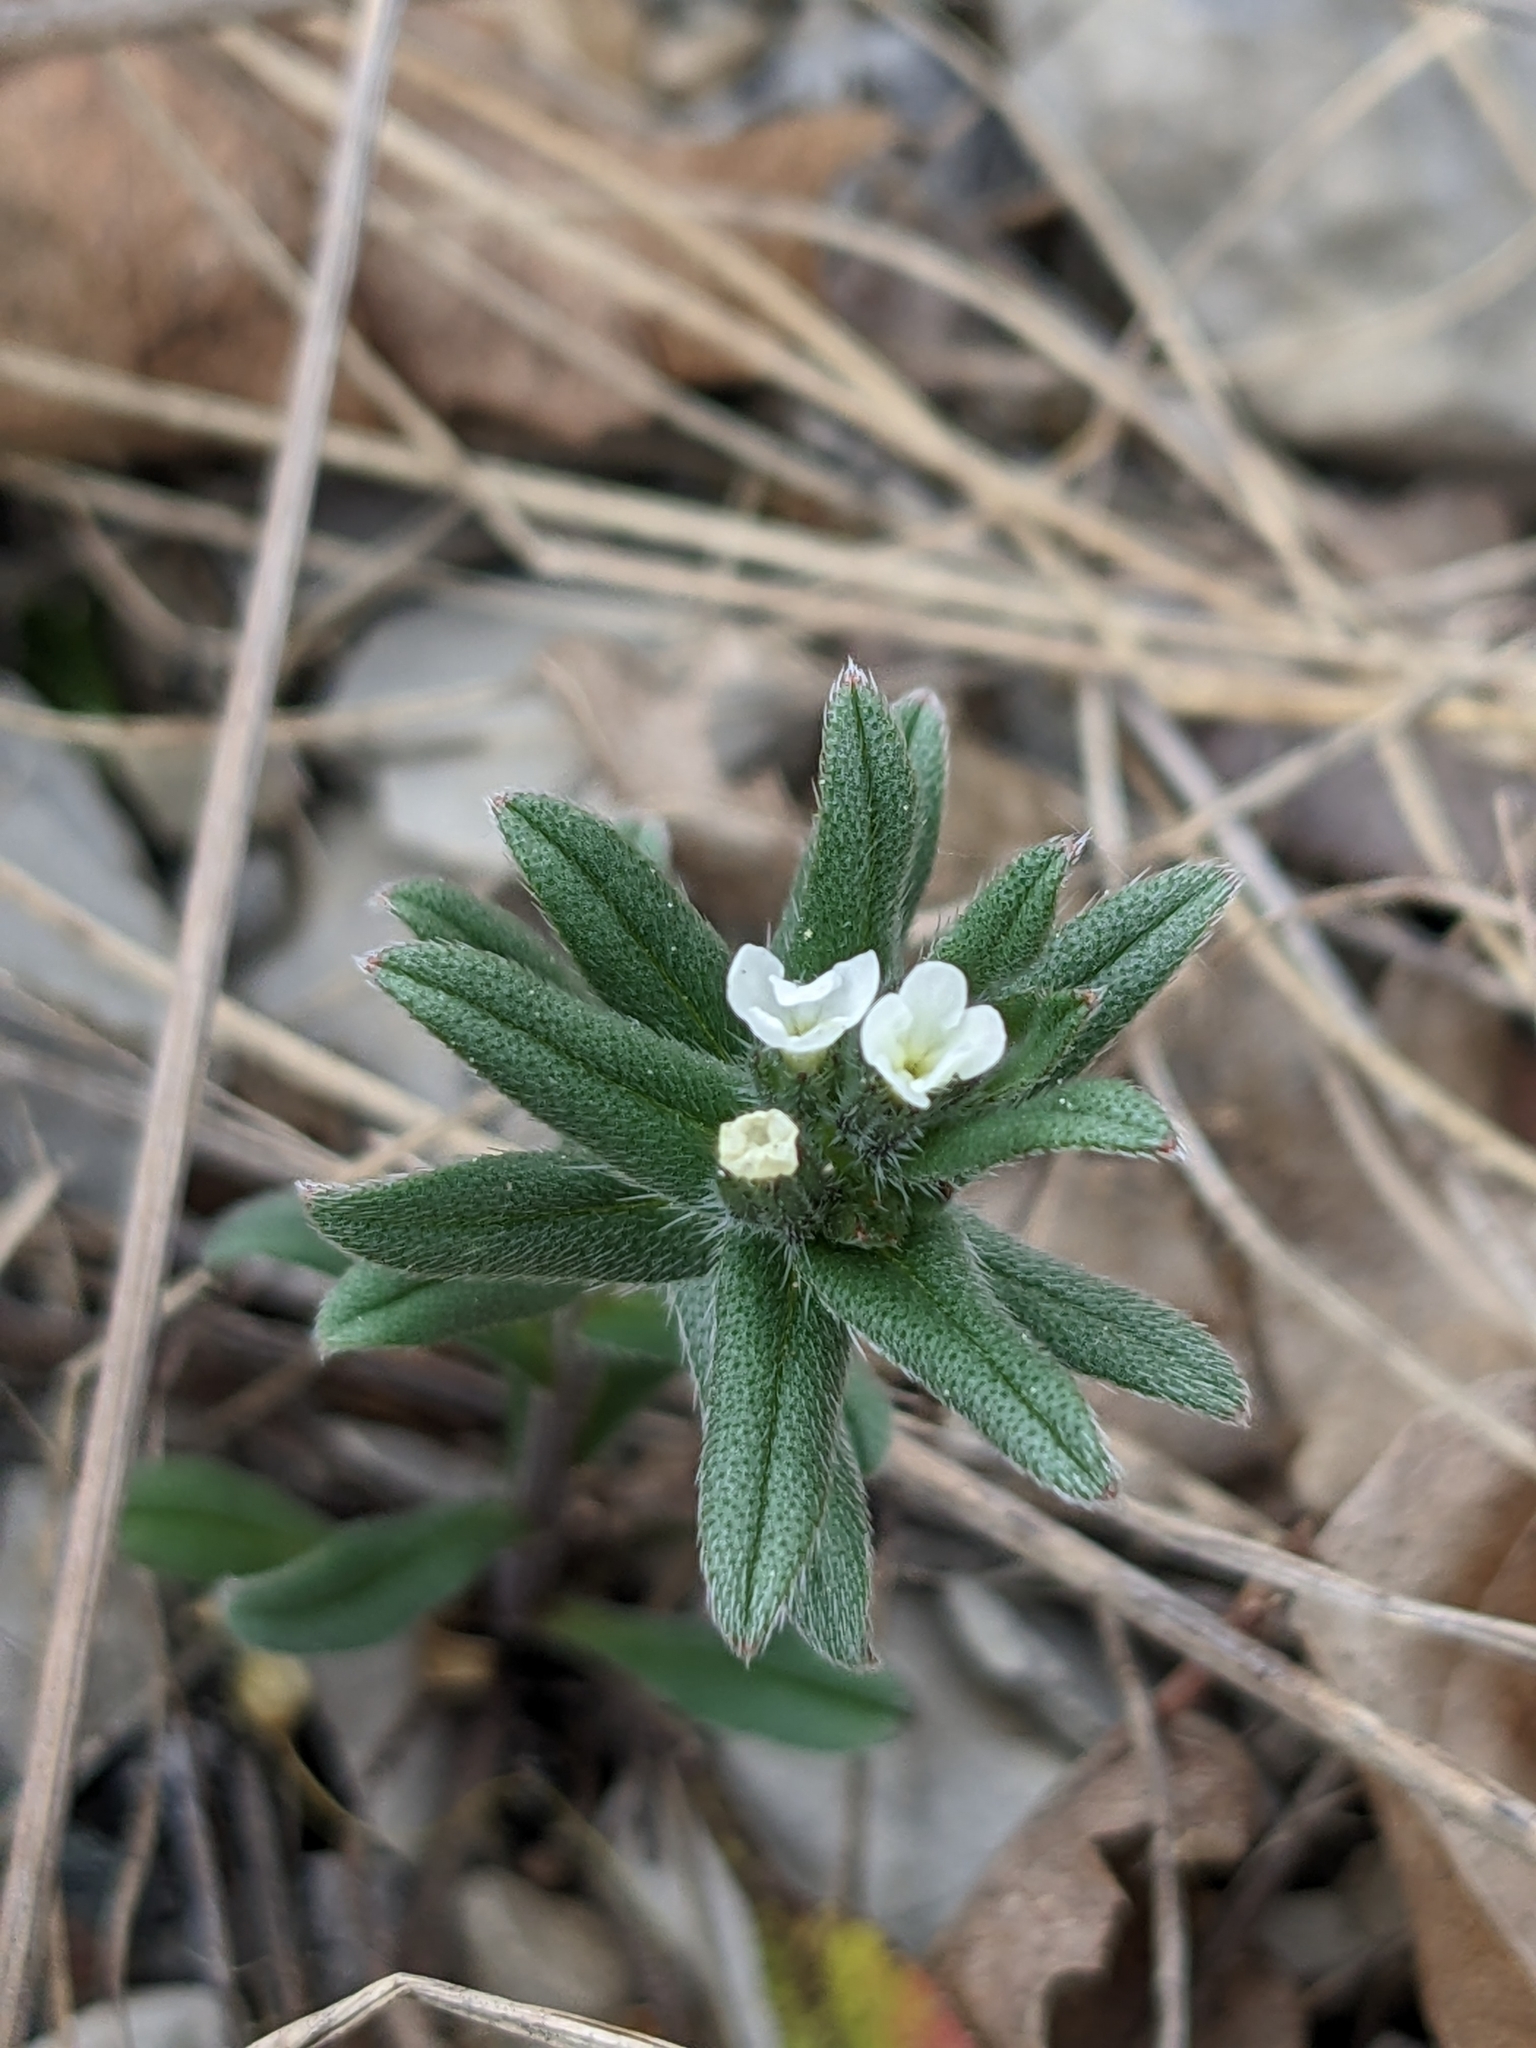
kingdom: Plantae
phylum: Tracheophyta
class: Magnoliopsida
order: Boraginales
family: Boraginaceae
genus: Buglossoides
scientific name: Buglossoides arvensis
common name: Corn gromwell
